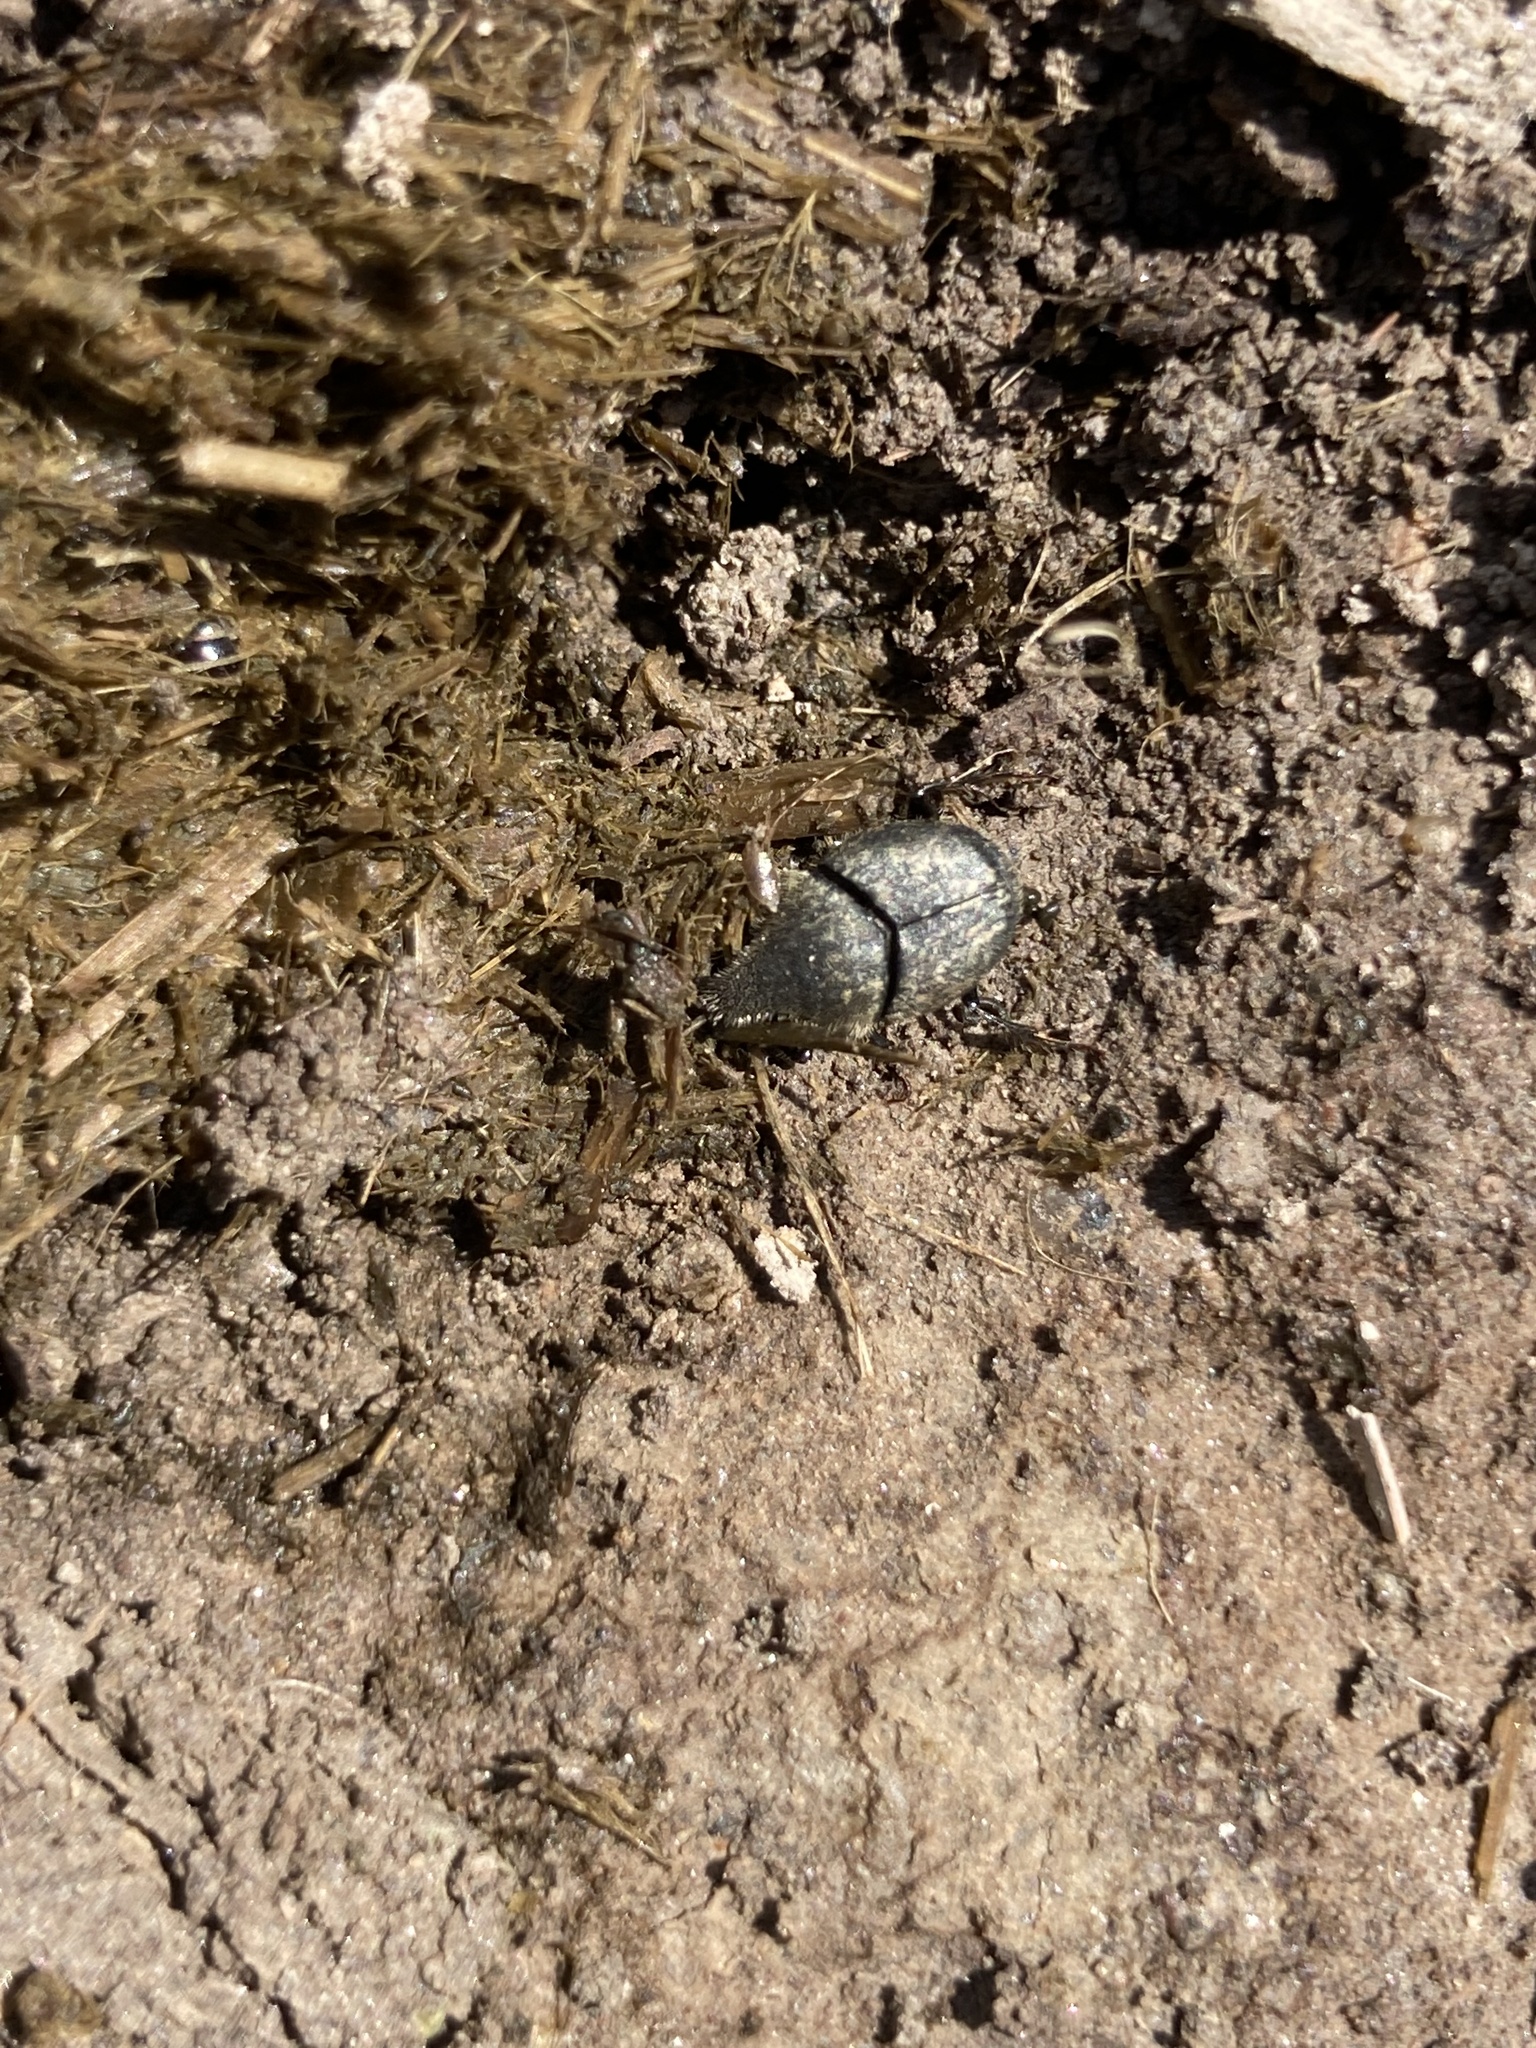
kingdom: Animalia
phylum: Arthropoda
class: Insecta
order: Coleoptera
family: Scarabaeidae
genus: Onthophagus
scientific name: Onthophagus hecate
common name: Scooped scarab
